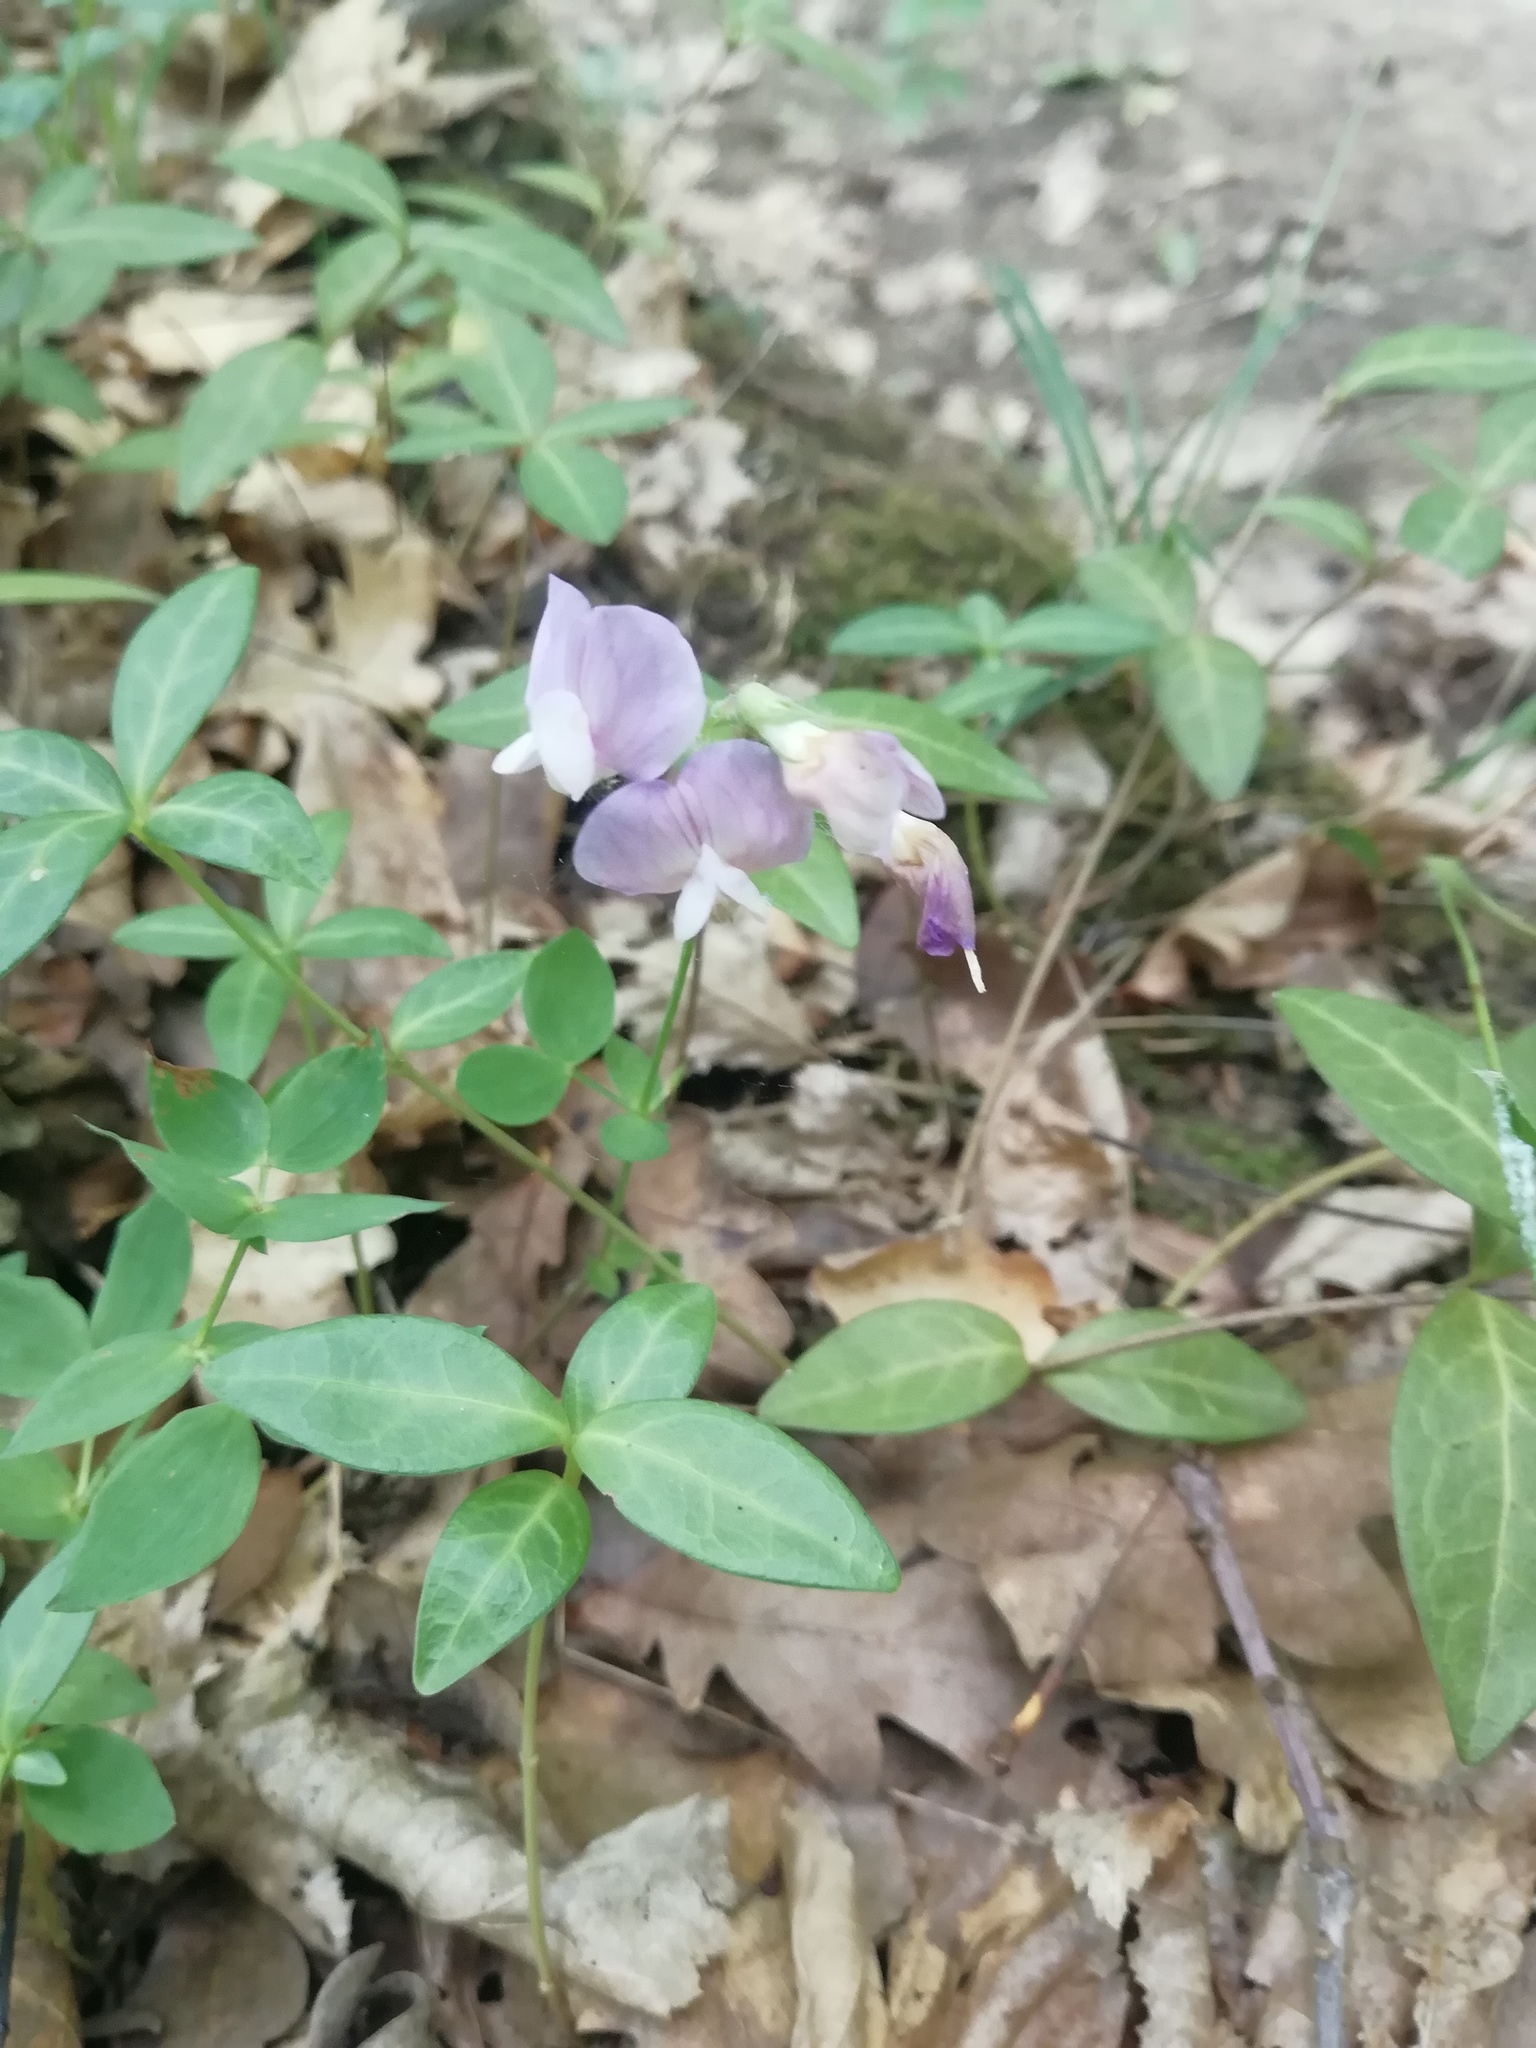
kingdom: Plantae
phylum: Tracheophyta
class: Magnoliopsida
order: Fabales
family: Fabaceae
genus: Lathyrus
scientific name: Lathyrus laxiflorus
